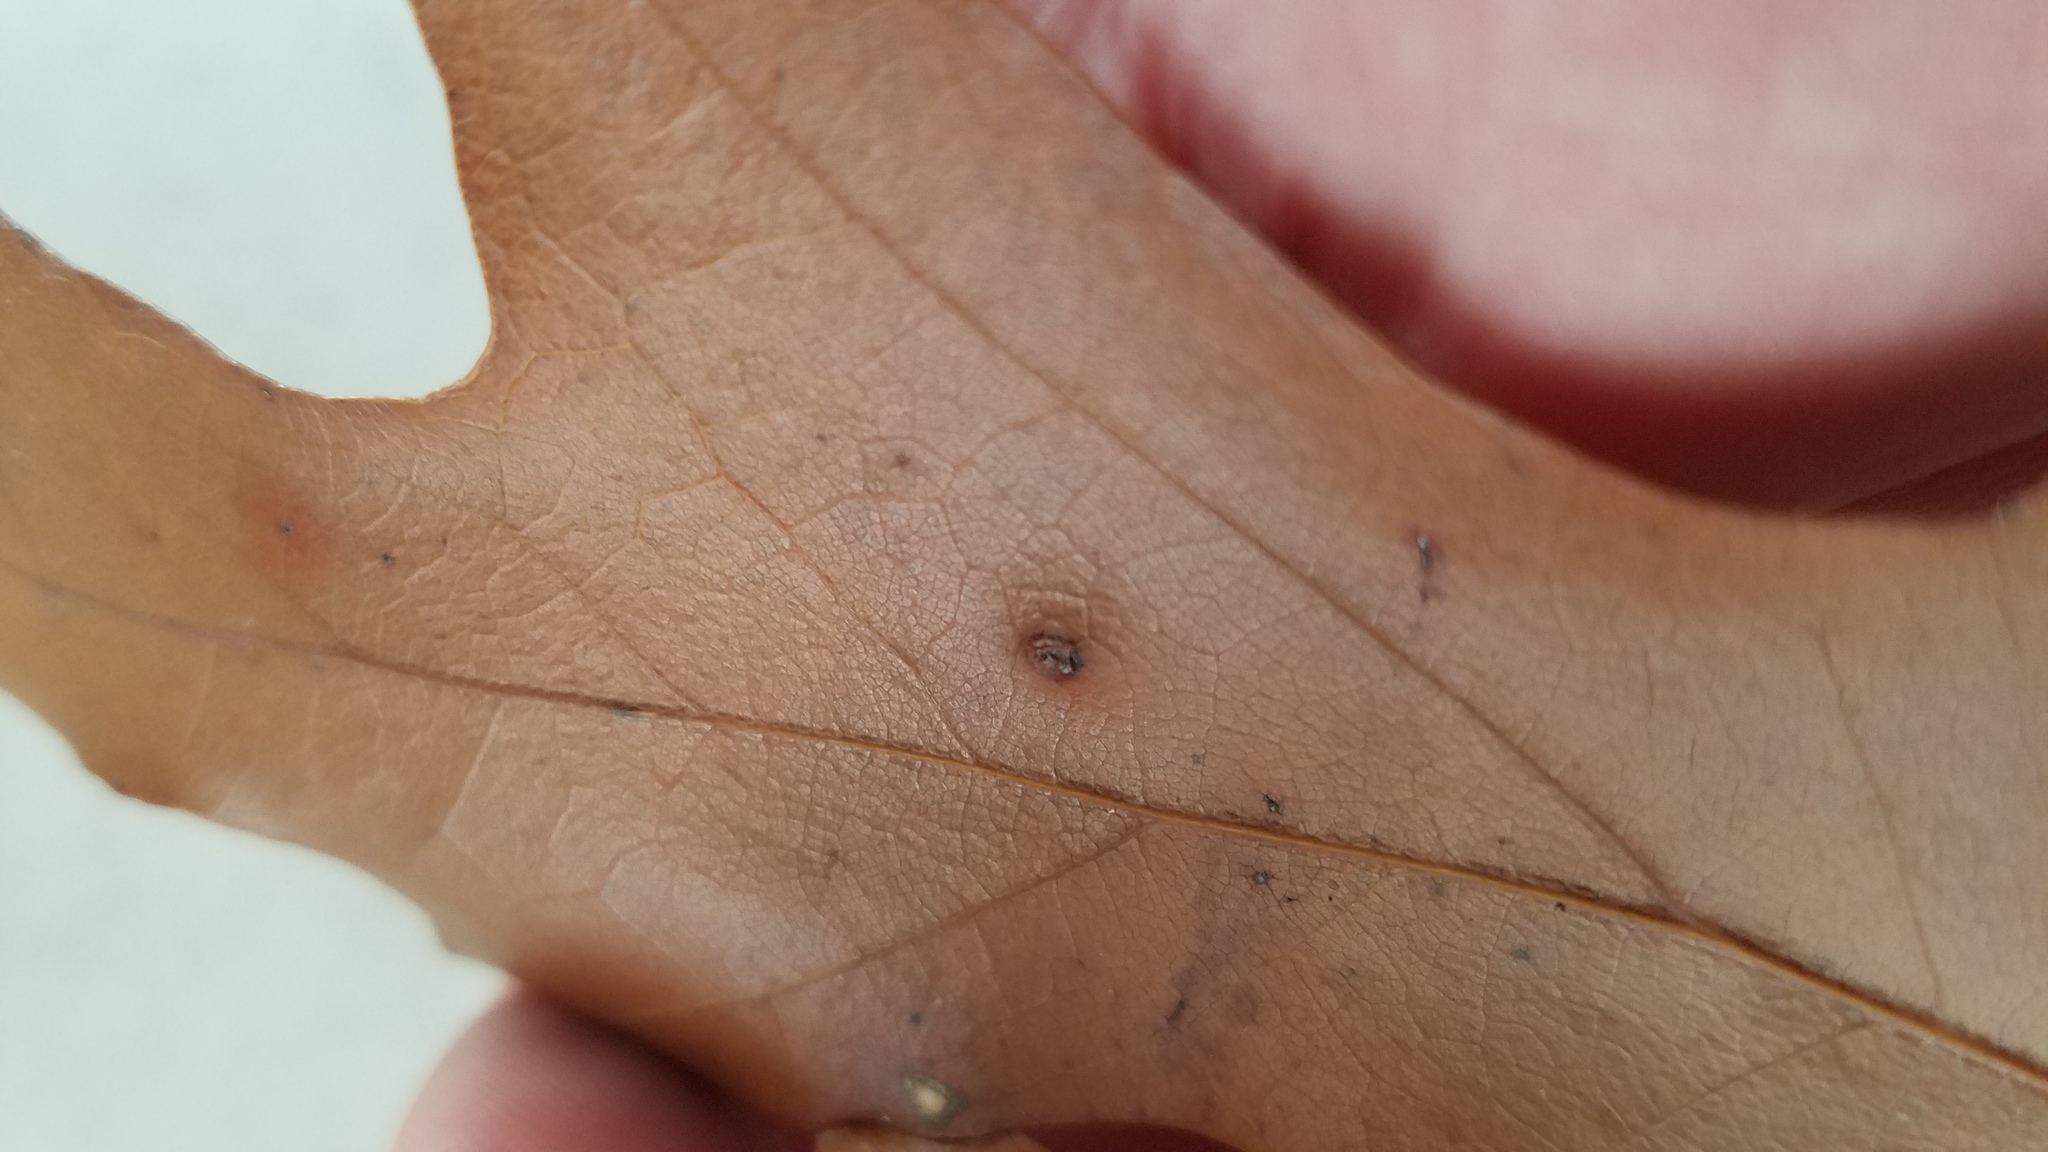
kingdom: Animalia
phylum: Arthropoda
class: Insecta
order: Diptera
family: Cecidomyiidae
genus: Polystepha
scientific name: Polystepha pilulae
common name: Oak leaf gall midge
